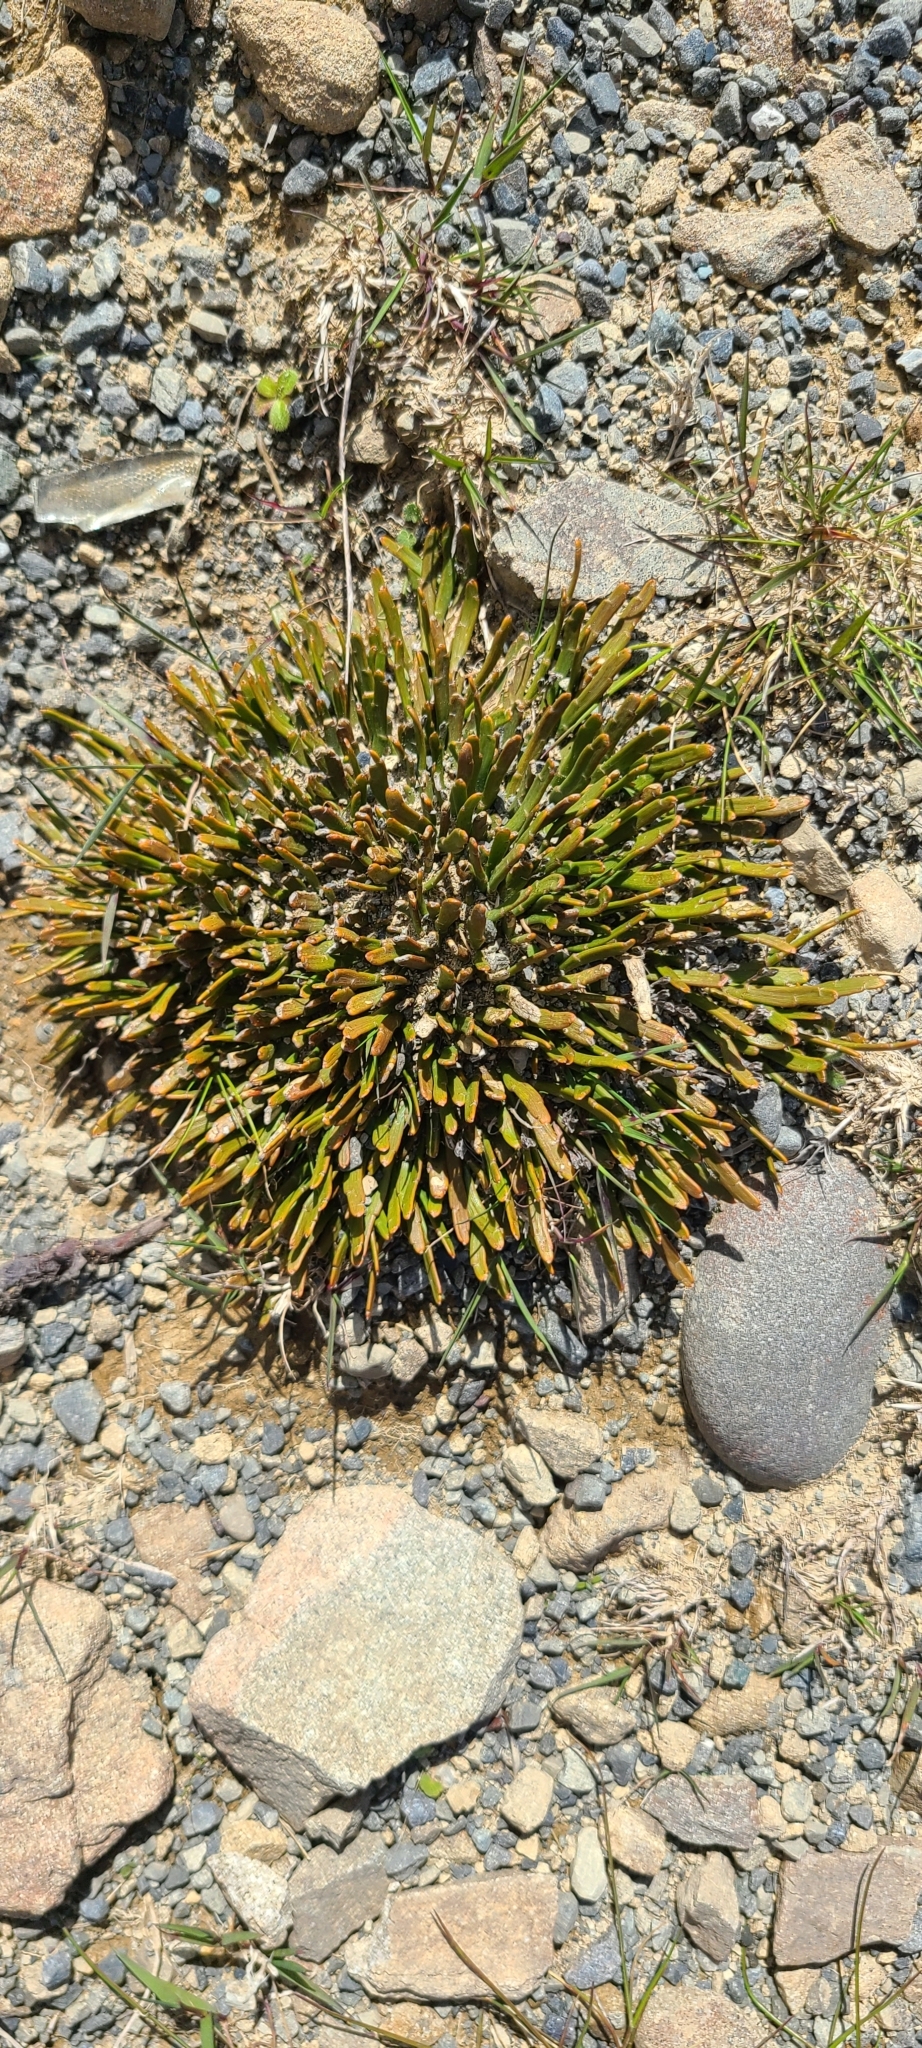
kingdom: Plantae
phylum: Tracheophyta
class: Magnoliopsida
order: Fabales
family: Fabaceae
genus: Carmichaelia
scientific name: Carmichaelia monroi
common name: Stout dwarf broom
